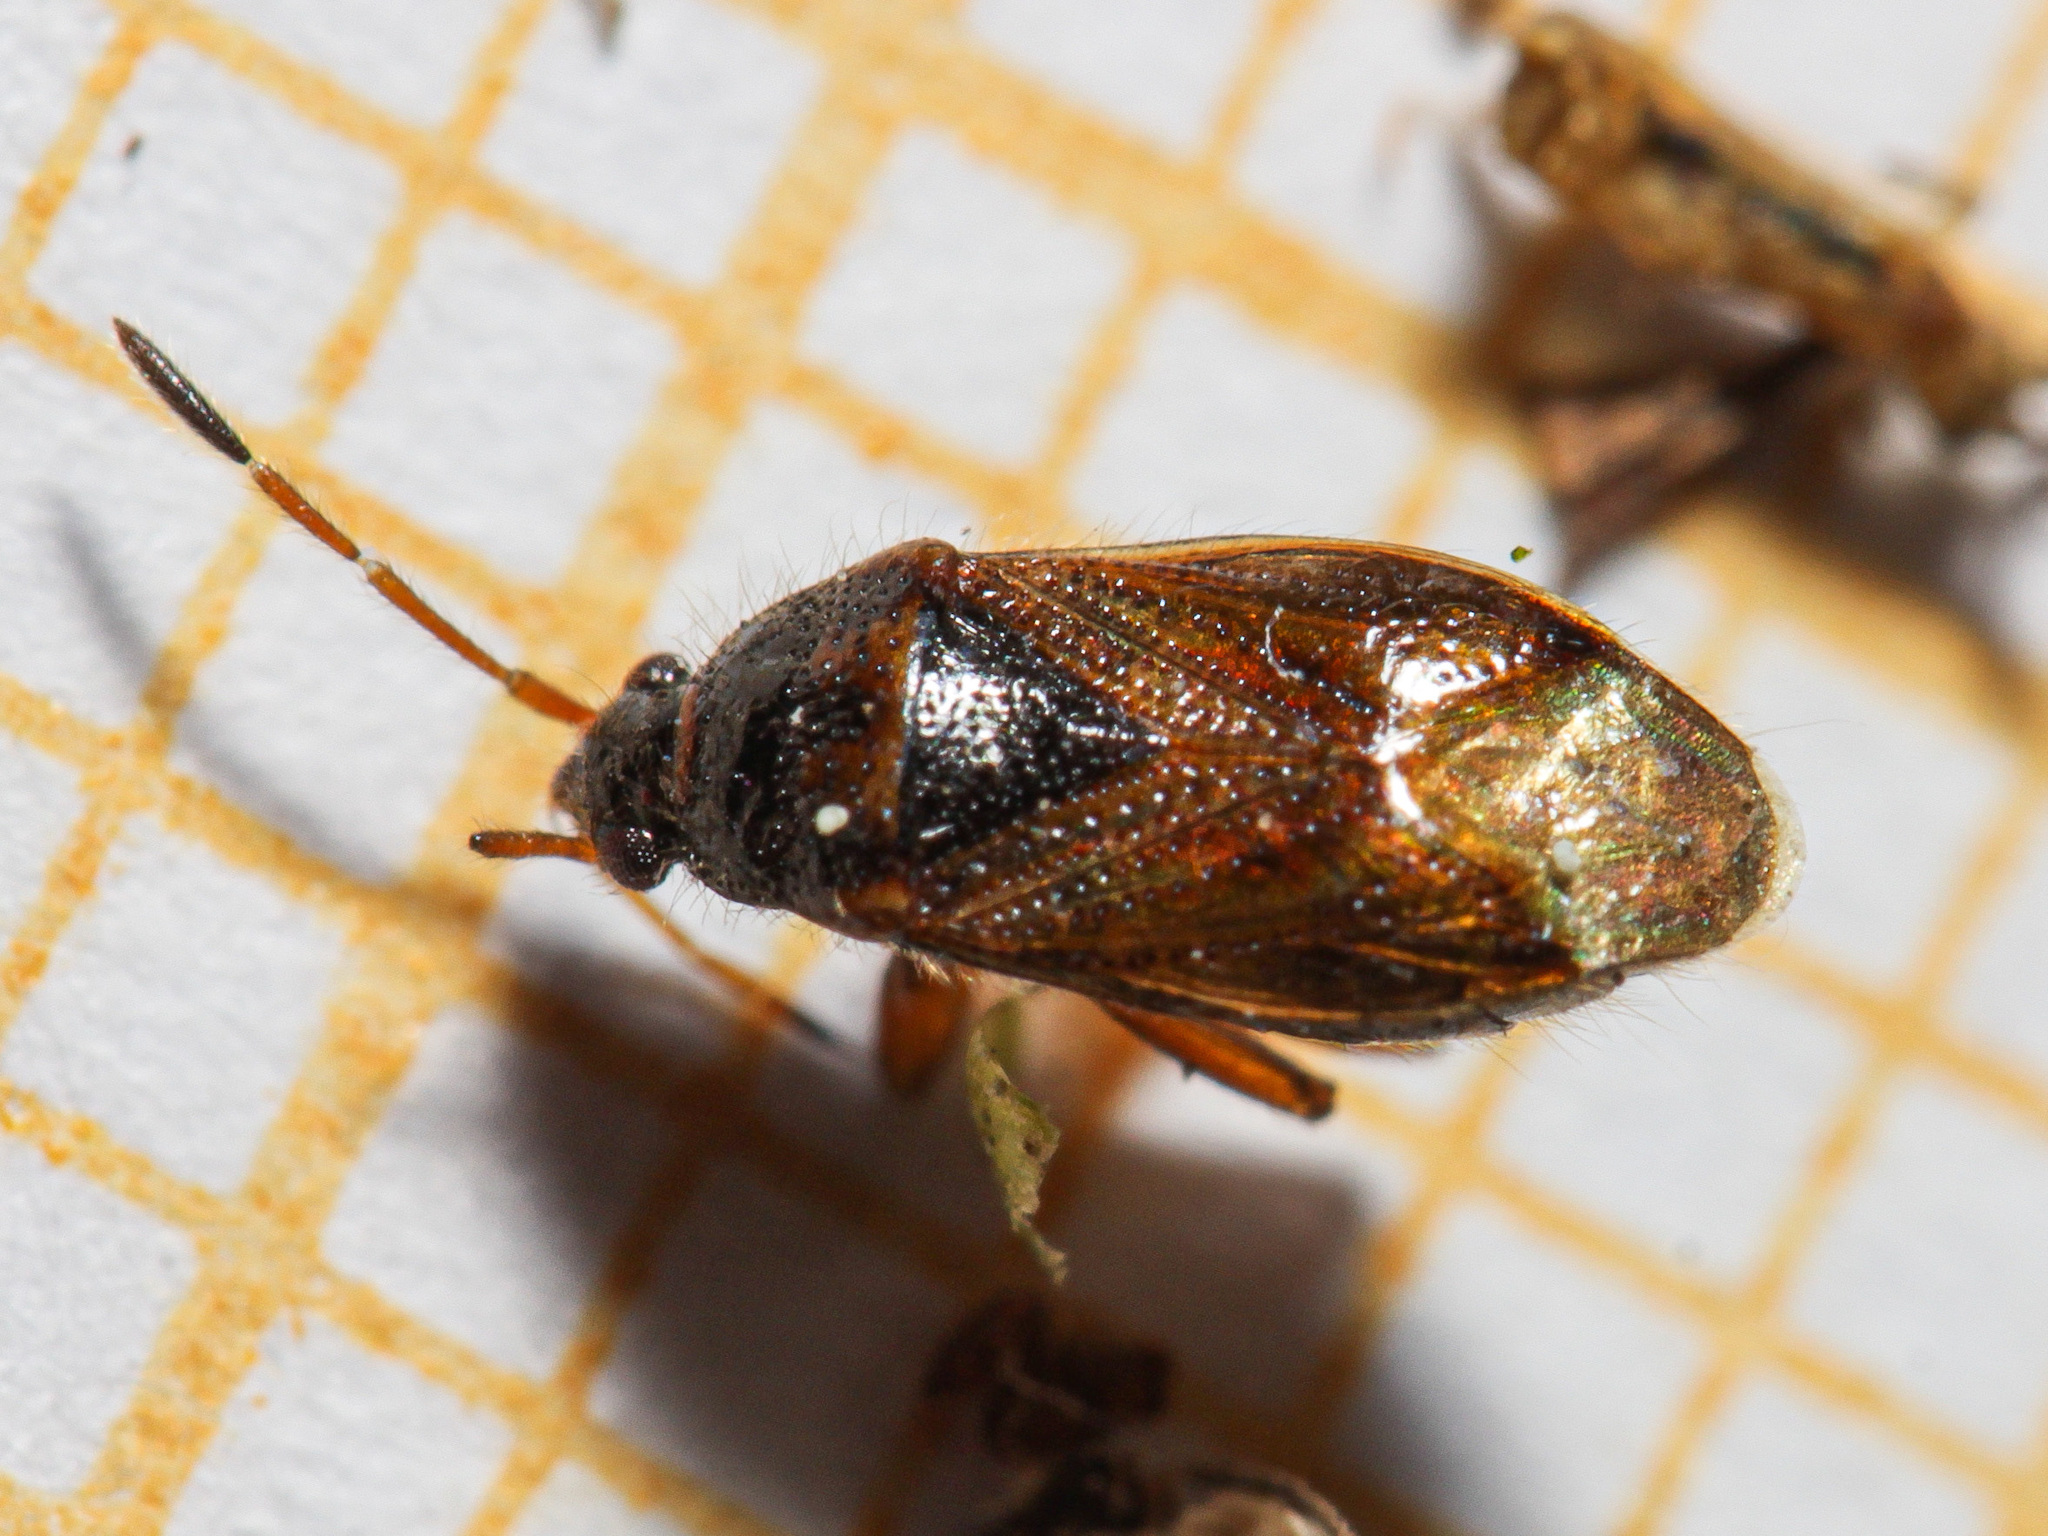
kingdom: Animalia
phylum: Arthropoda
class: Insecta
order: Hemiptera
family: Rhyparochromidae
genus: Lasiosomus
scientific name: Lasiosomus enervis
